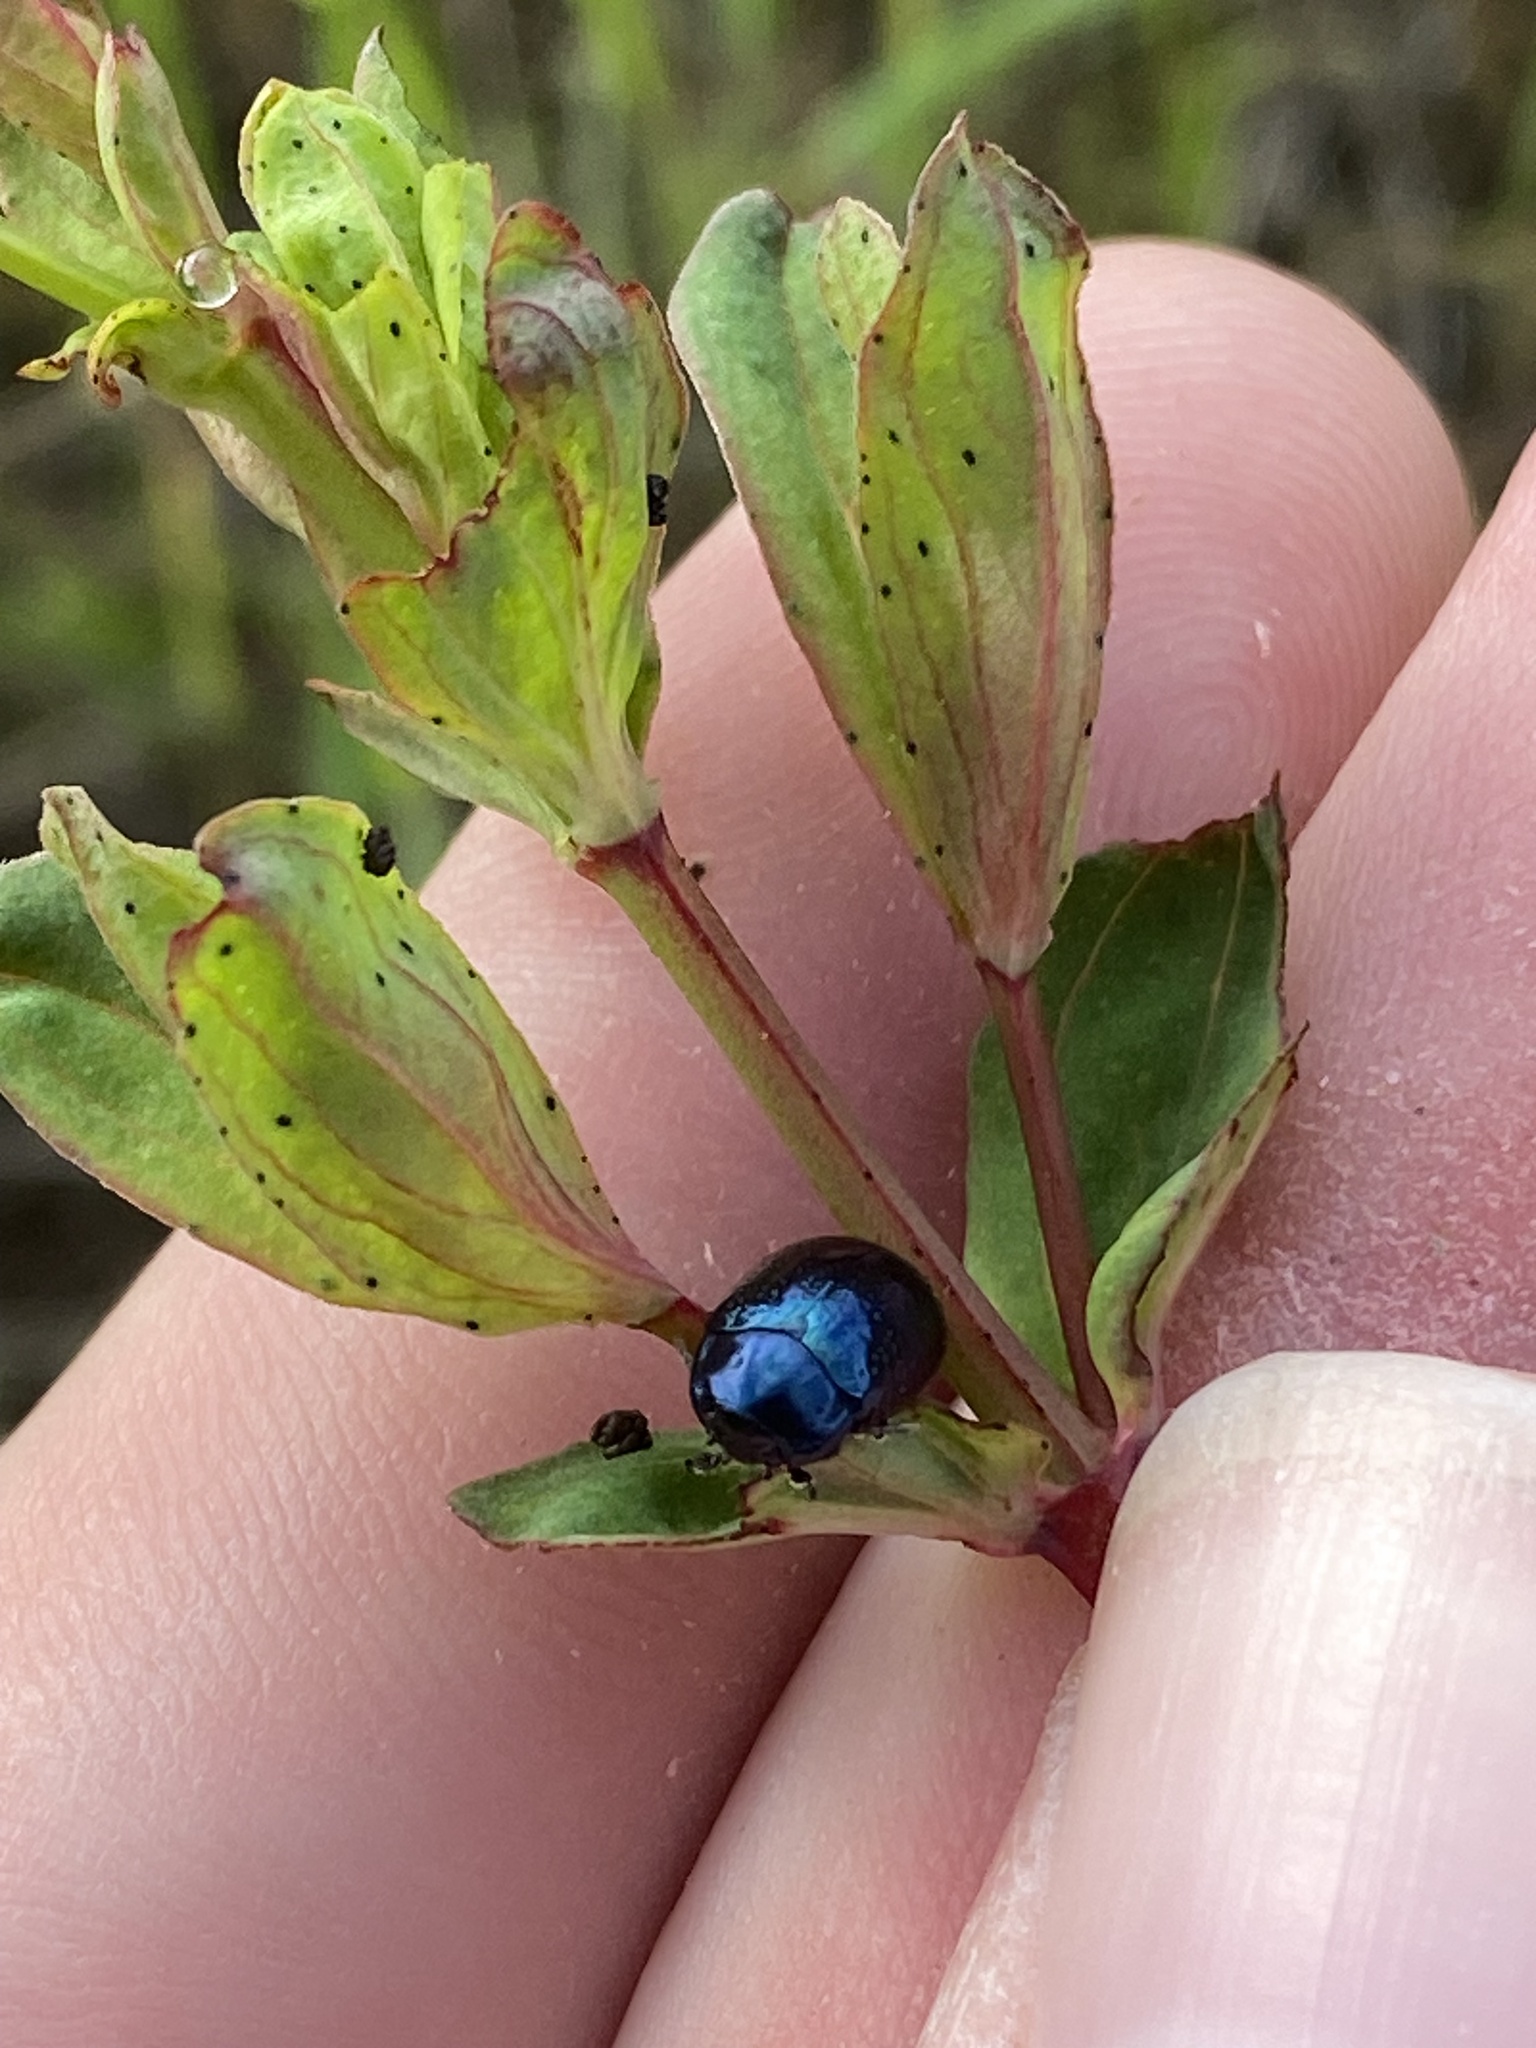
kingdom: Animalia
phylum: Arthropoda
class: Insecta
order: Coleoptera
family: Chrysomelidae
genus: Chrysolina
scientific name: Chrysolina hyperici
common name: St. johnswort beetle
